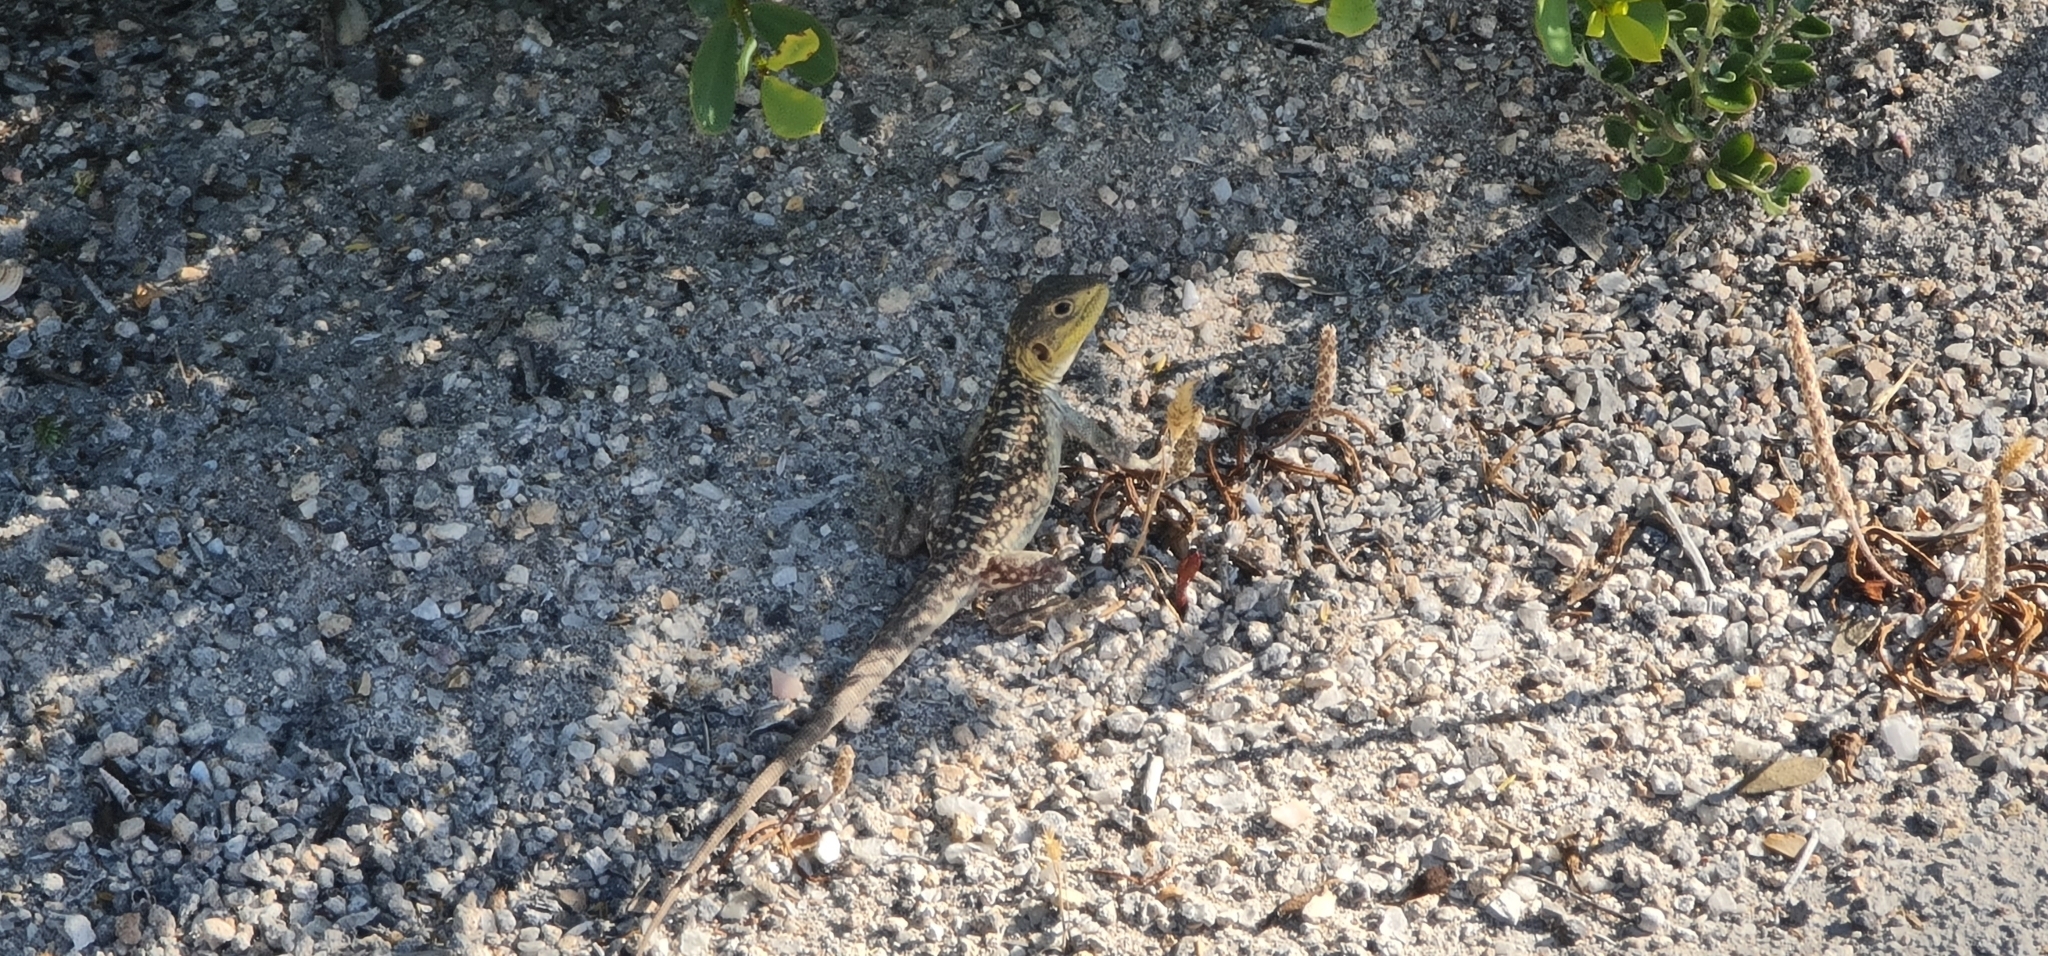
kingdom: Animalia
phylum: Chordata
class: Squamata
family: Agamidae
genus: Ctenophorus
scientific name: Ctenophorus pictus
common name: Painted dragon
